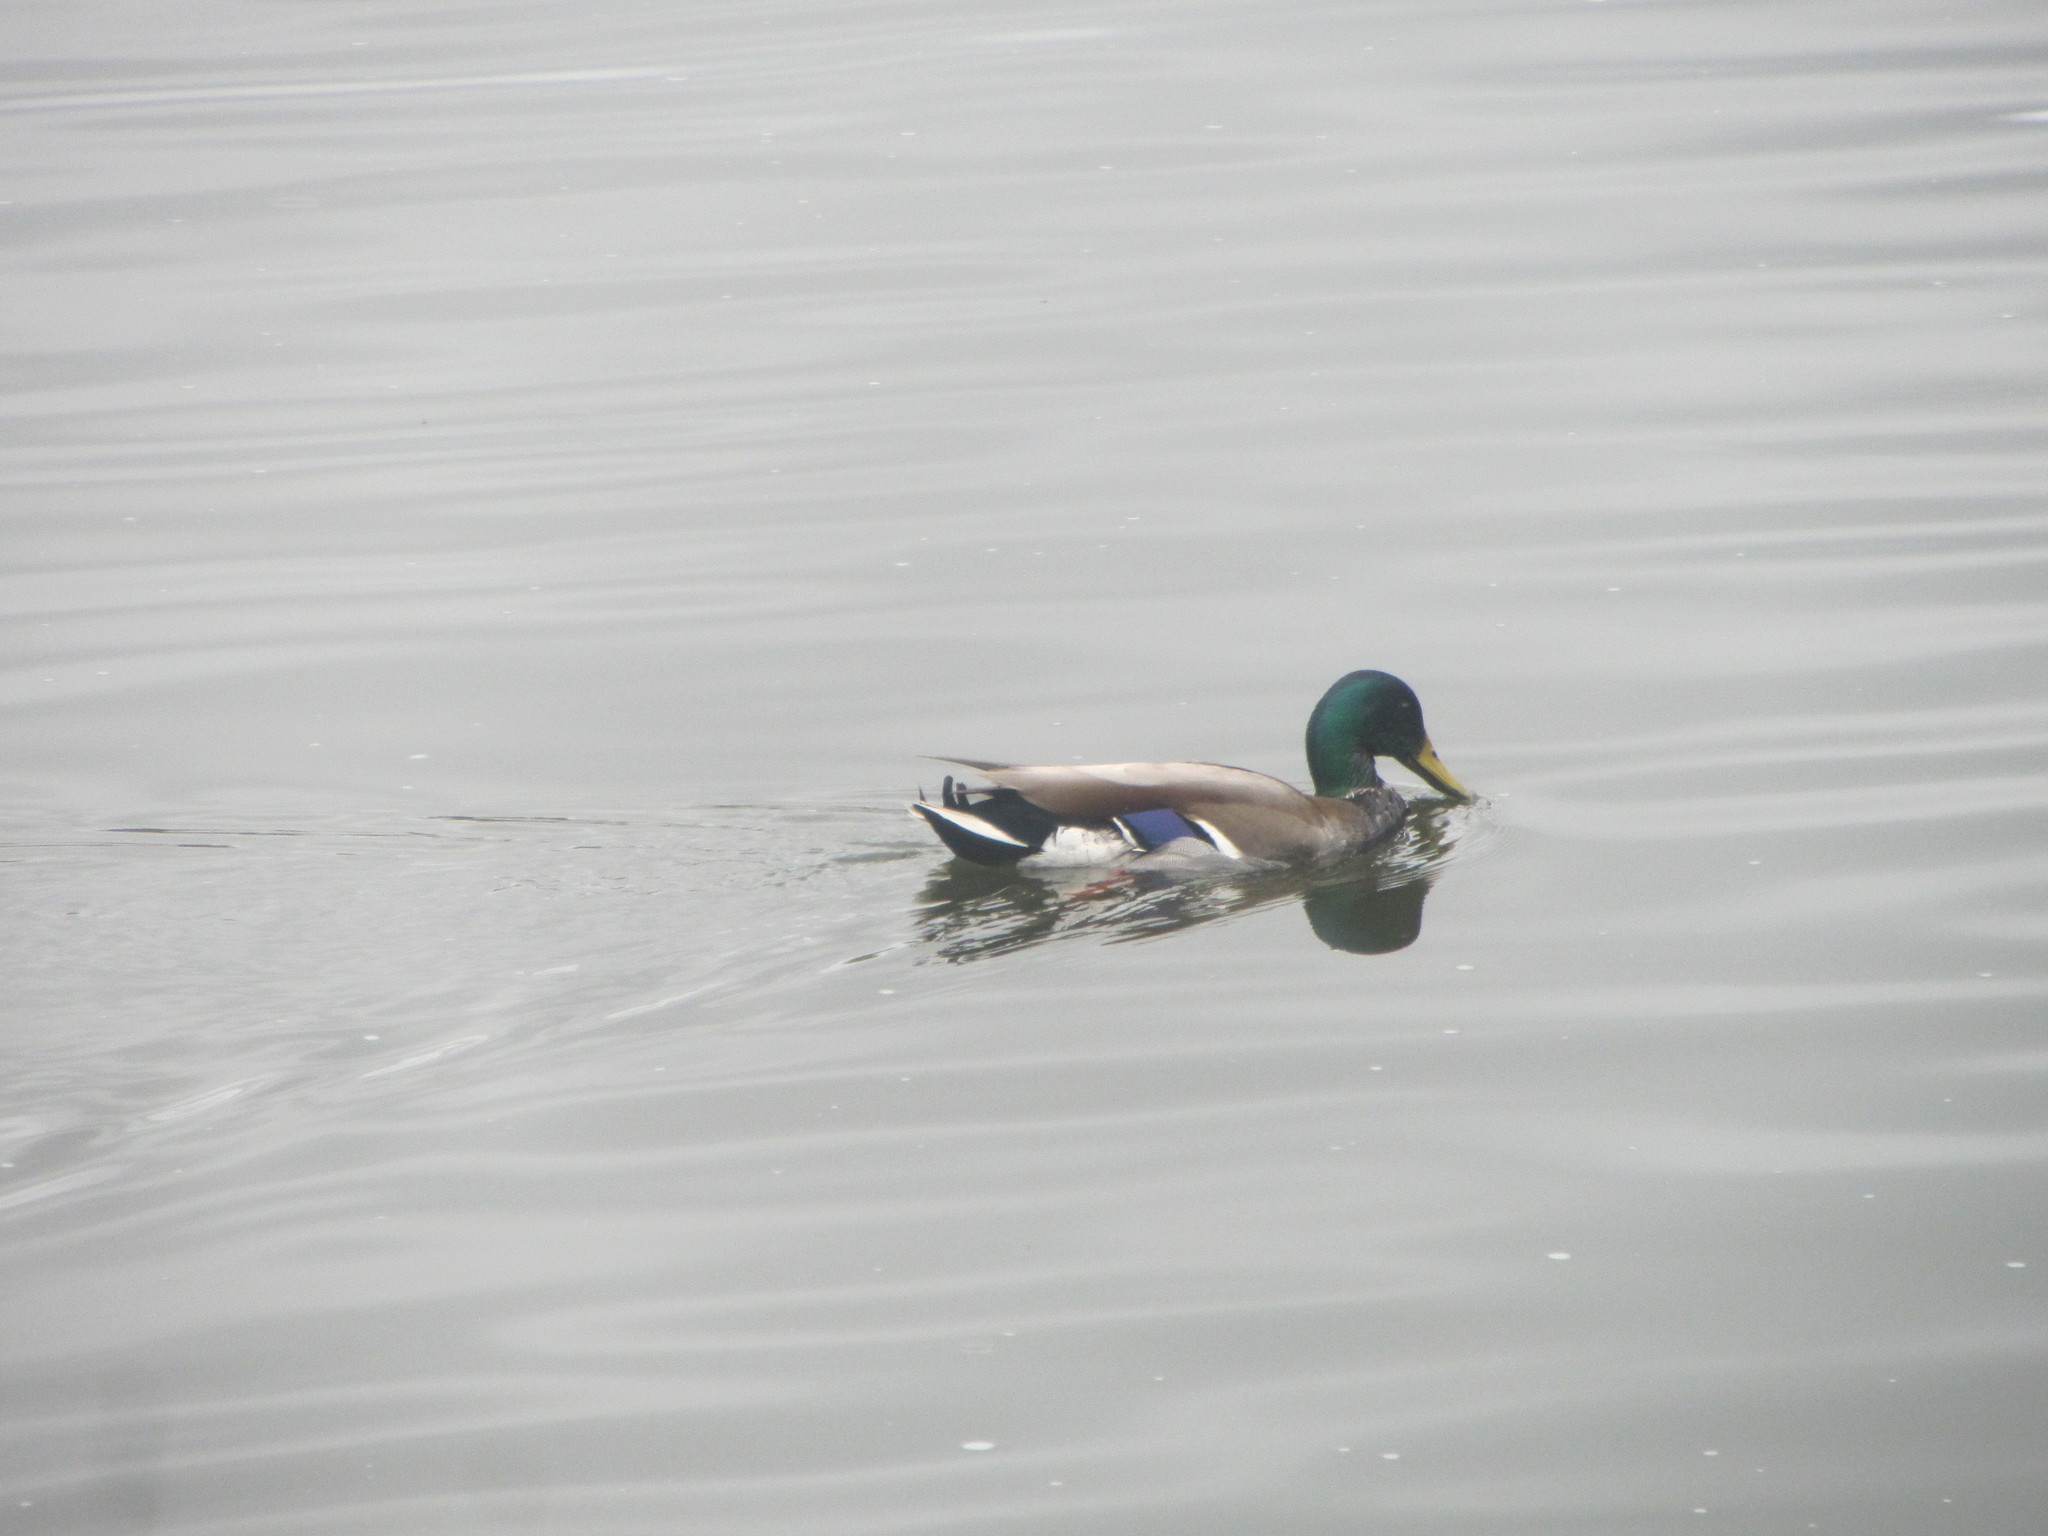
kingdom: Animalia
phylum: Chordata
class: Aves
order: Anseriformes
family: Anatidae
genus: Anas
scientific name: Anas platyrhynchos
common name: Mallard
